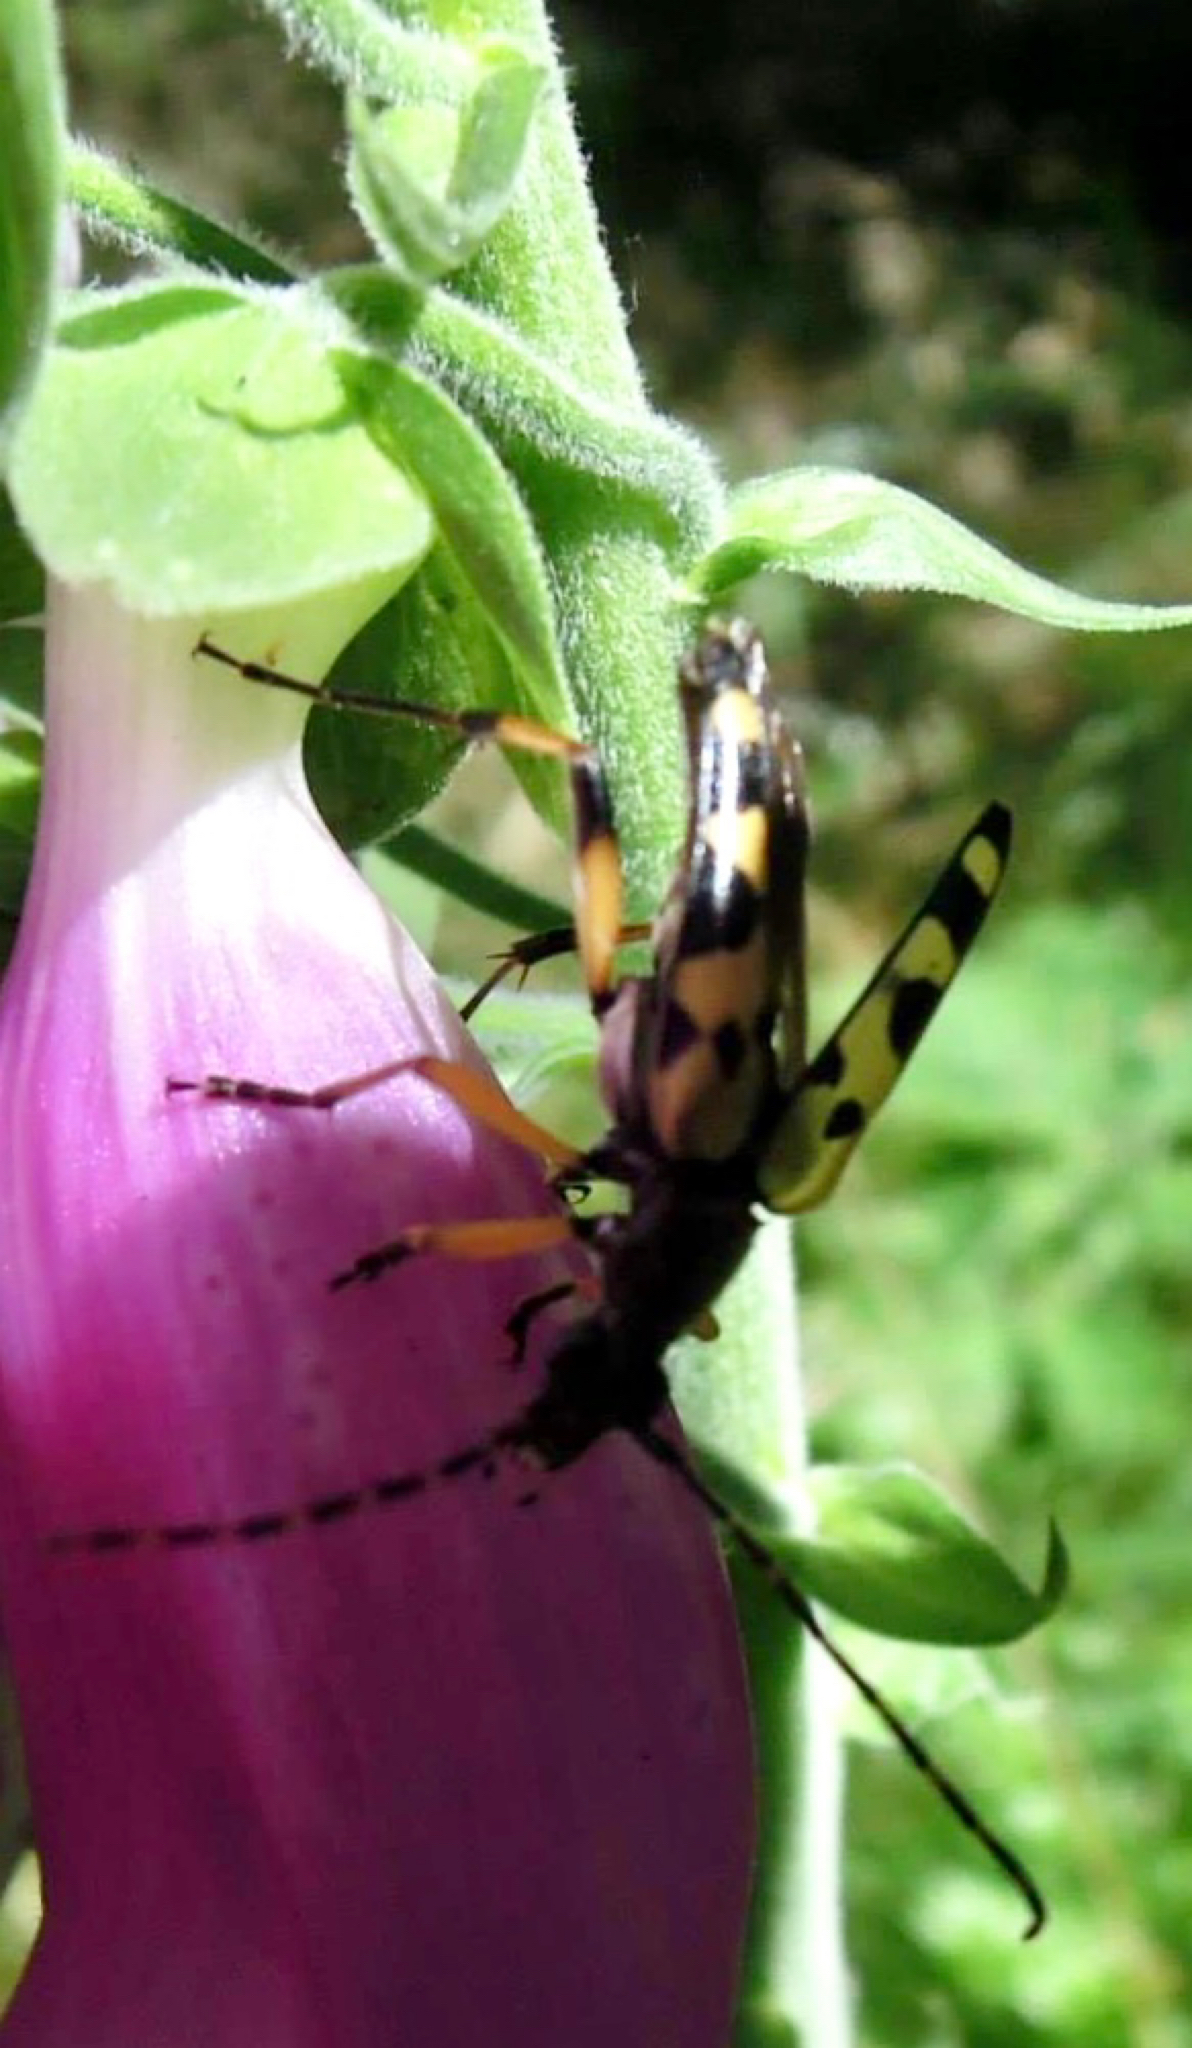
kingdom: Animalia
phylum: Arthropoda
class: Insecta
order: Coleoptera
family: Cerambycidae
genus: Rutpela
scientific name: Rutpela maculata
